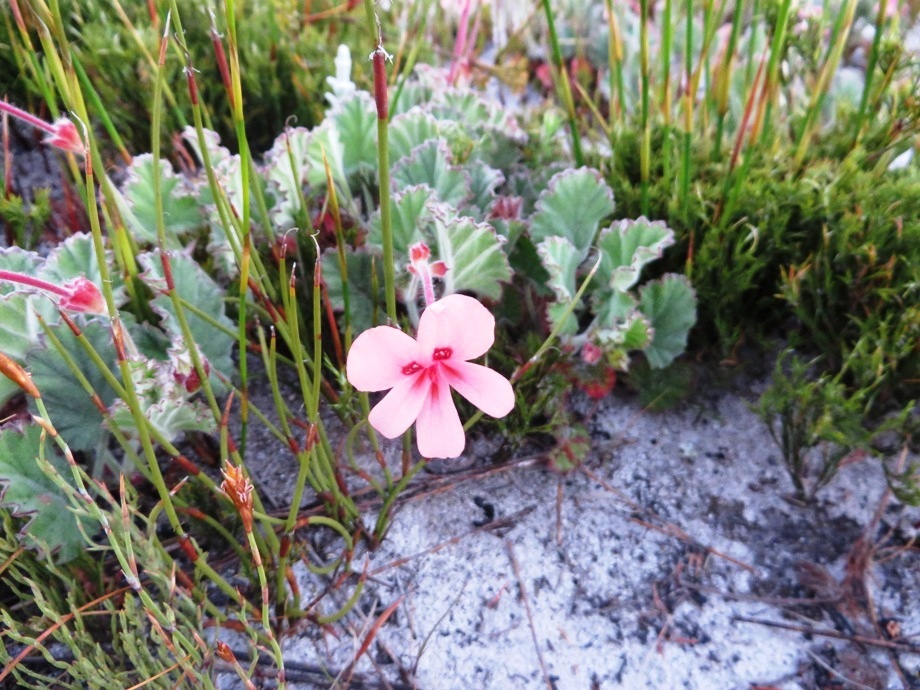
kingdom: Plantae
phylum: Tracheophyta
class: Magnoliopsida
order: Geraniales
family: Geraniaceae
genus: Pelargonium
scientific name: Pelargonium alpinum
